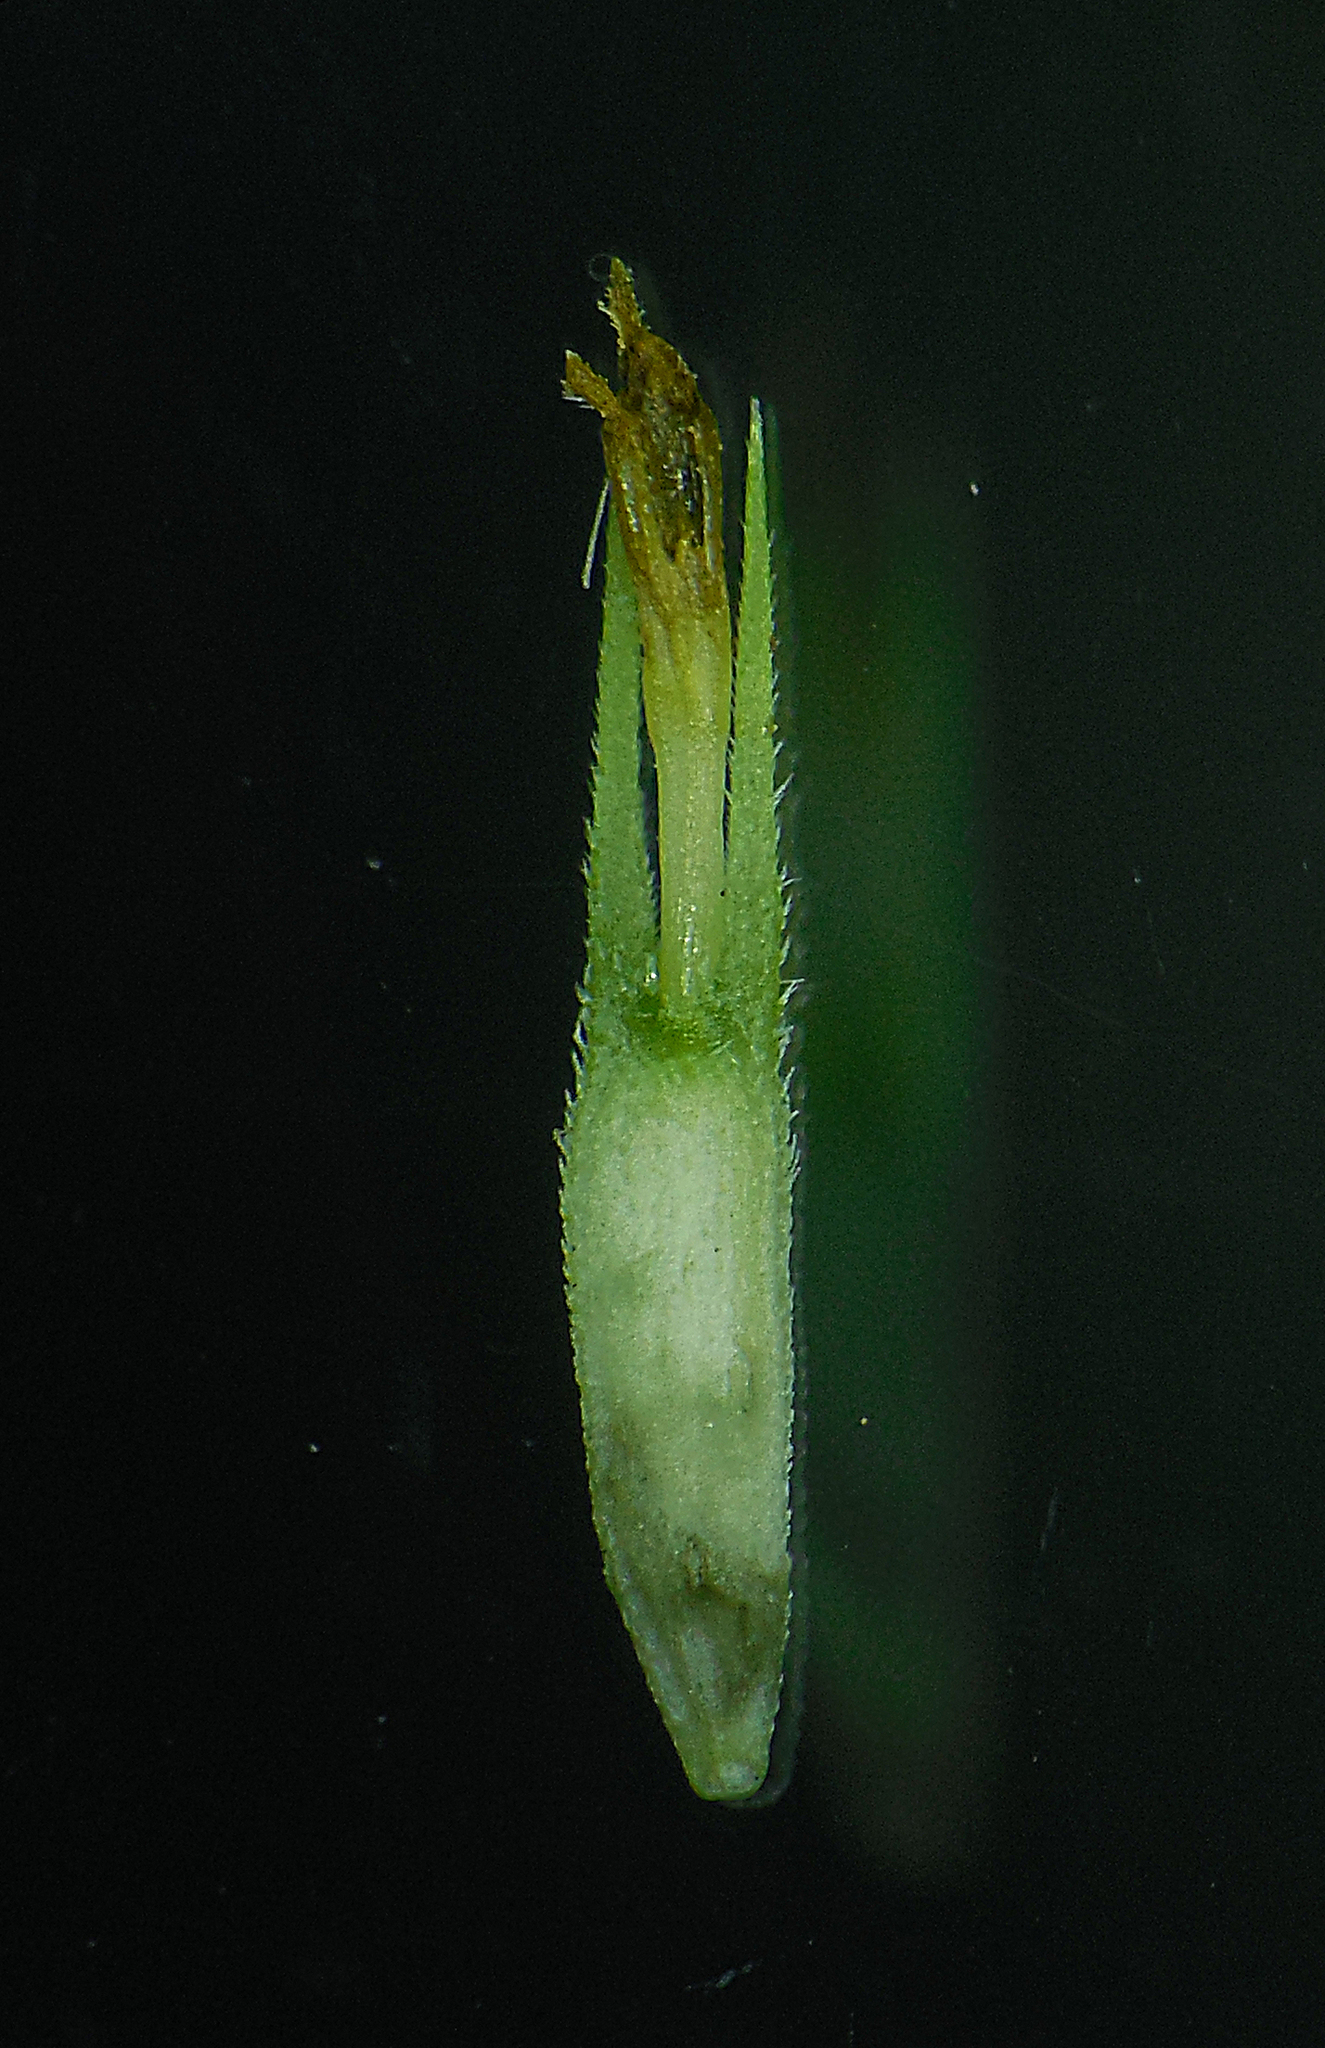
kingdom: Plantae
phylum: Tracheophyta
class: Magnoliopsida
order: Asterales
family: Asteraceae
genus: Synedrella
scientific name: Synedrella nodiflora
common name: Nodeweed
